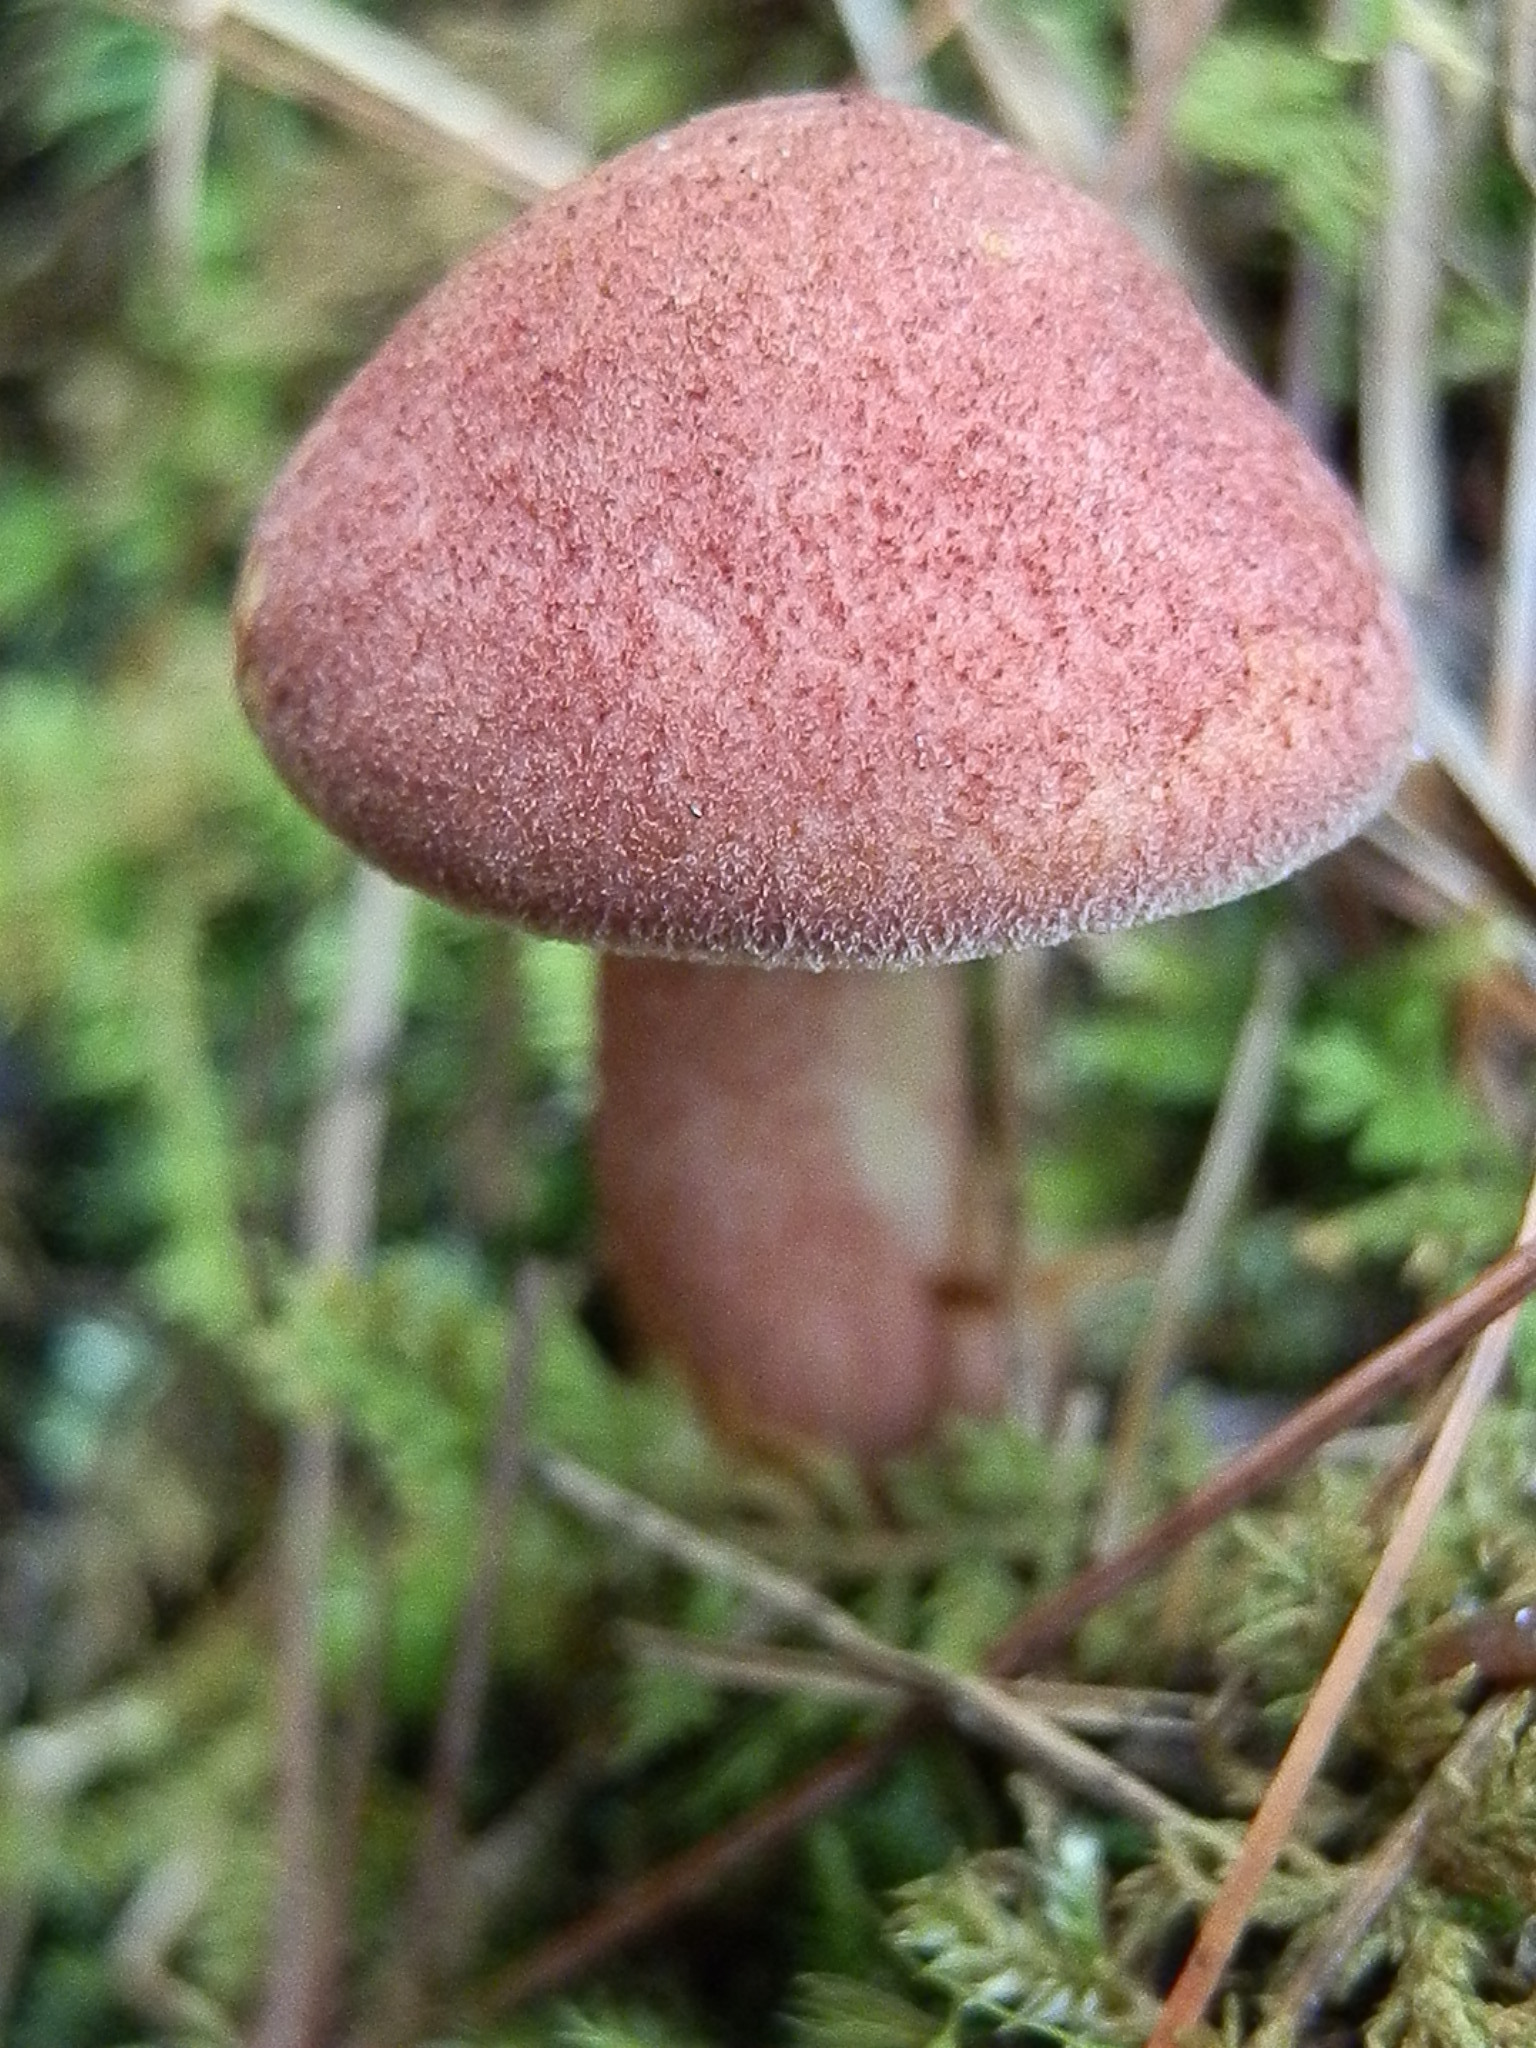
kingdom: Fungi
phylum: Basidiomycota
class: Agaricomycetes
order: Agaricales
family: Tricholomataceae
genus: Tricholomopsis
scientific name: Tricholomopsis rutilans
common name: Plums and custard
